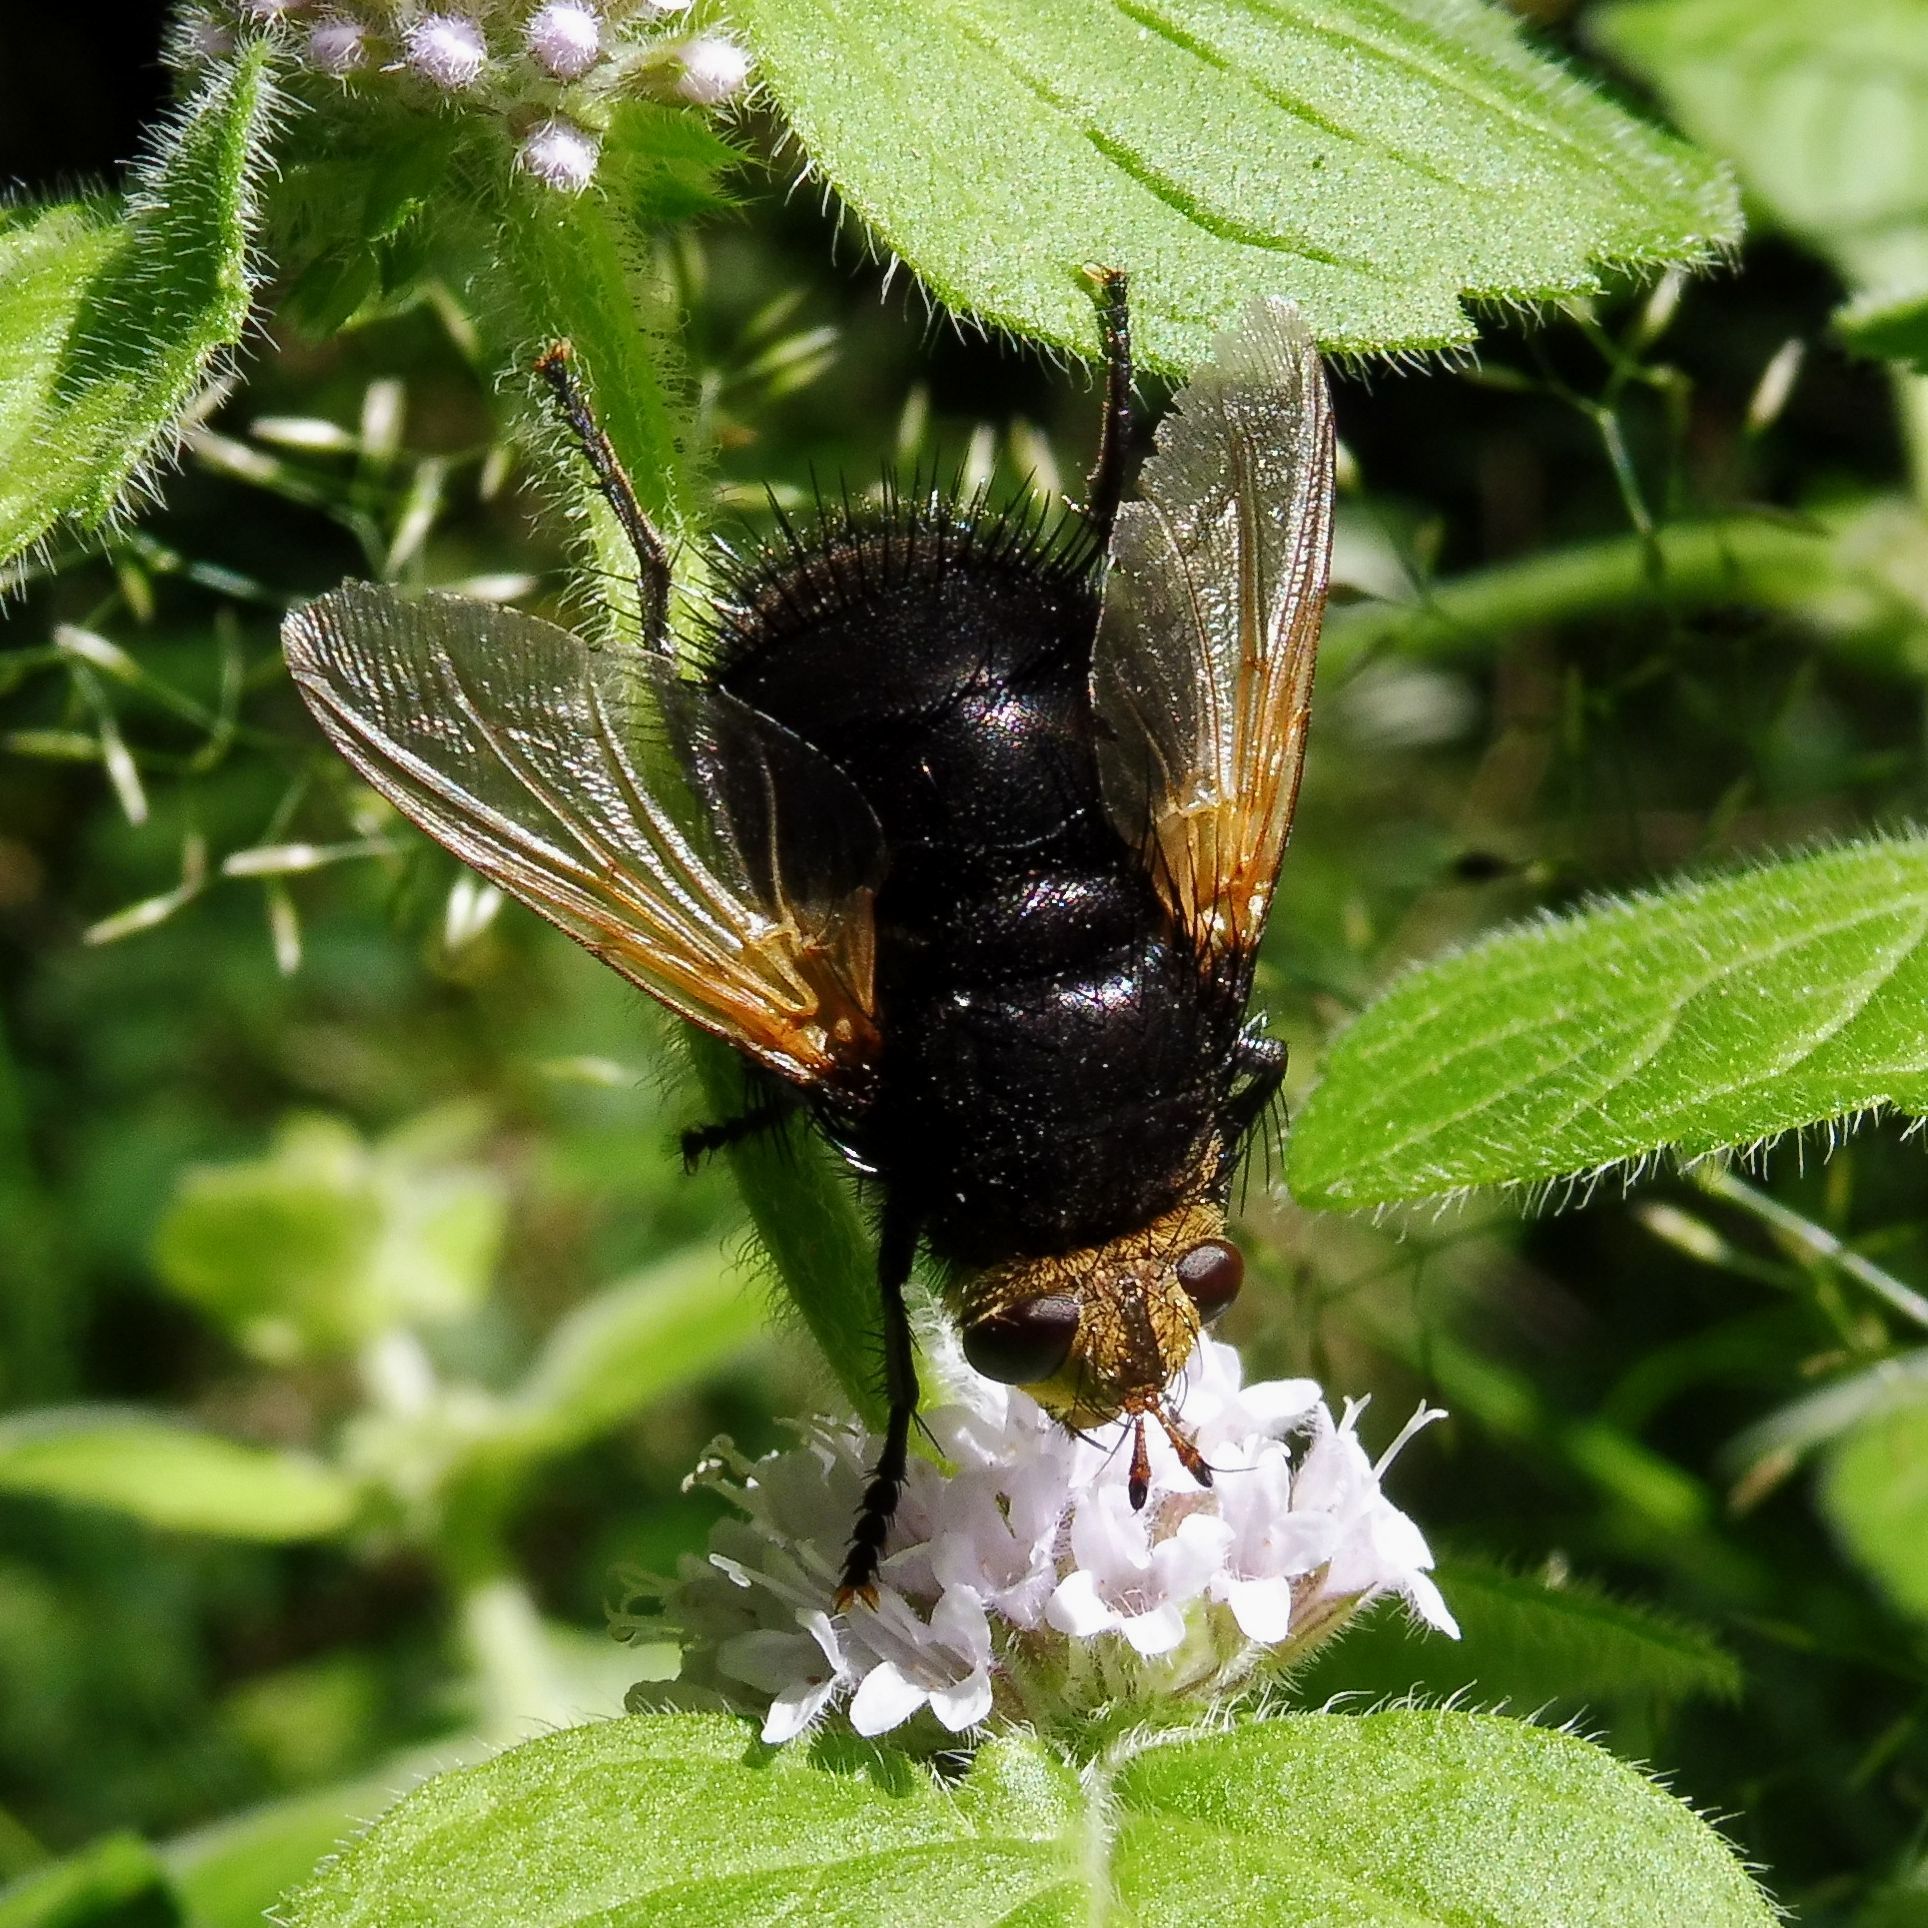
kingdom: Animalia
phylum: Arthropoda
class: Insecta
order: Diptera
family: Tachinidae
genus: Tachina
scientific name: Tachina grossa
